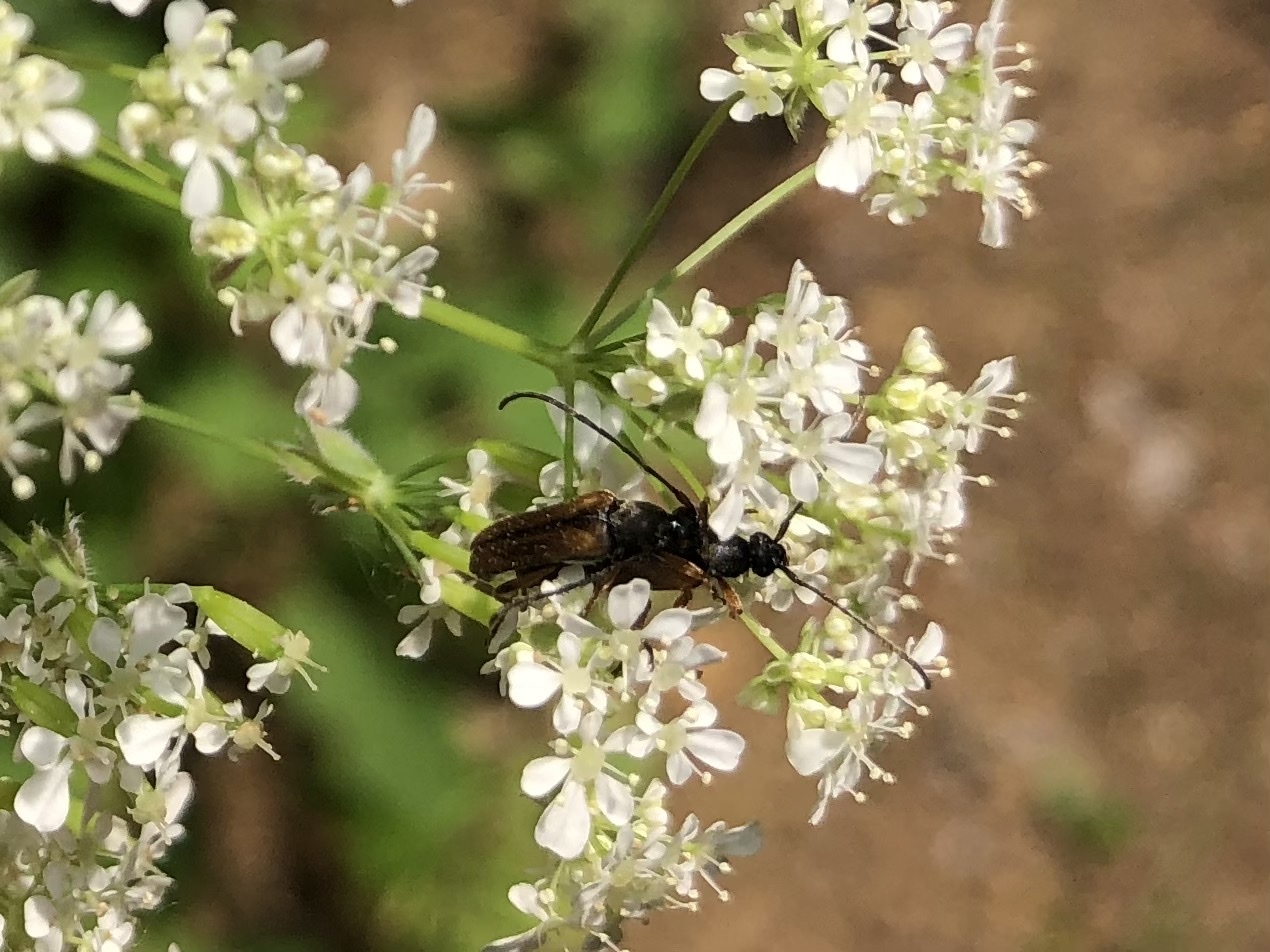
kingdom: Animalia
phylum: Arthropoda
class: Insecta
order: Coleoptera
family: Cerambycidae
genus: Alosterna
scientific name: Alosterna tabacicolor
